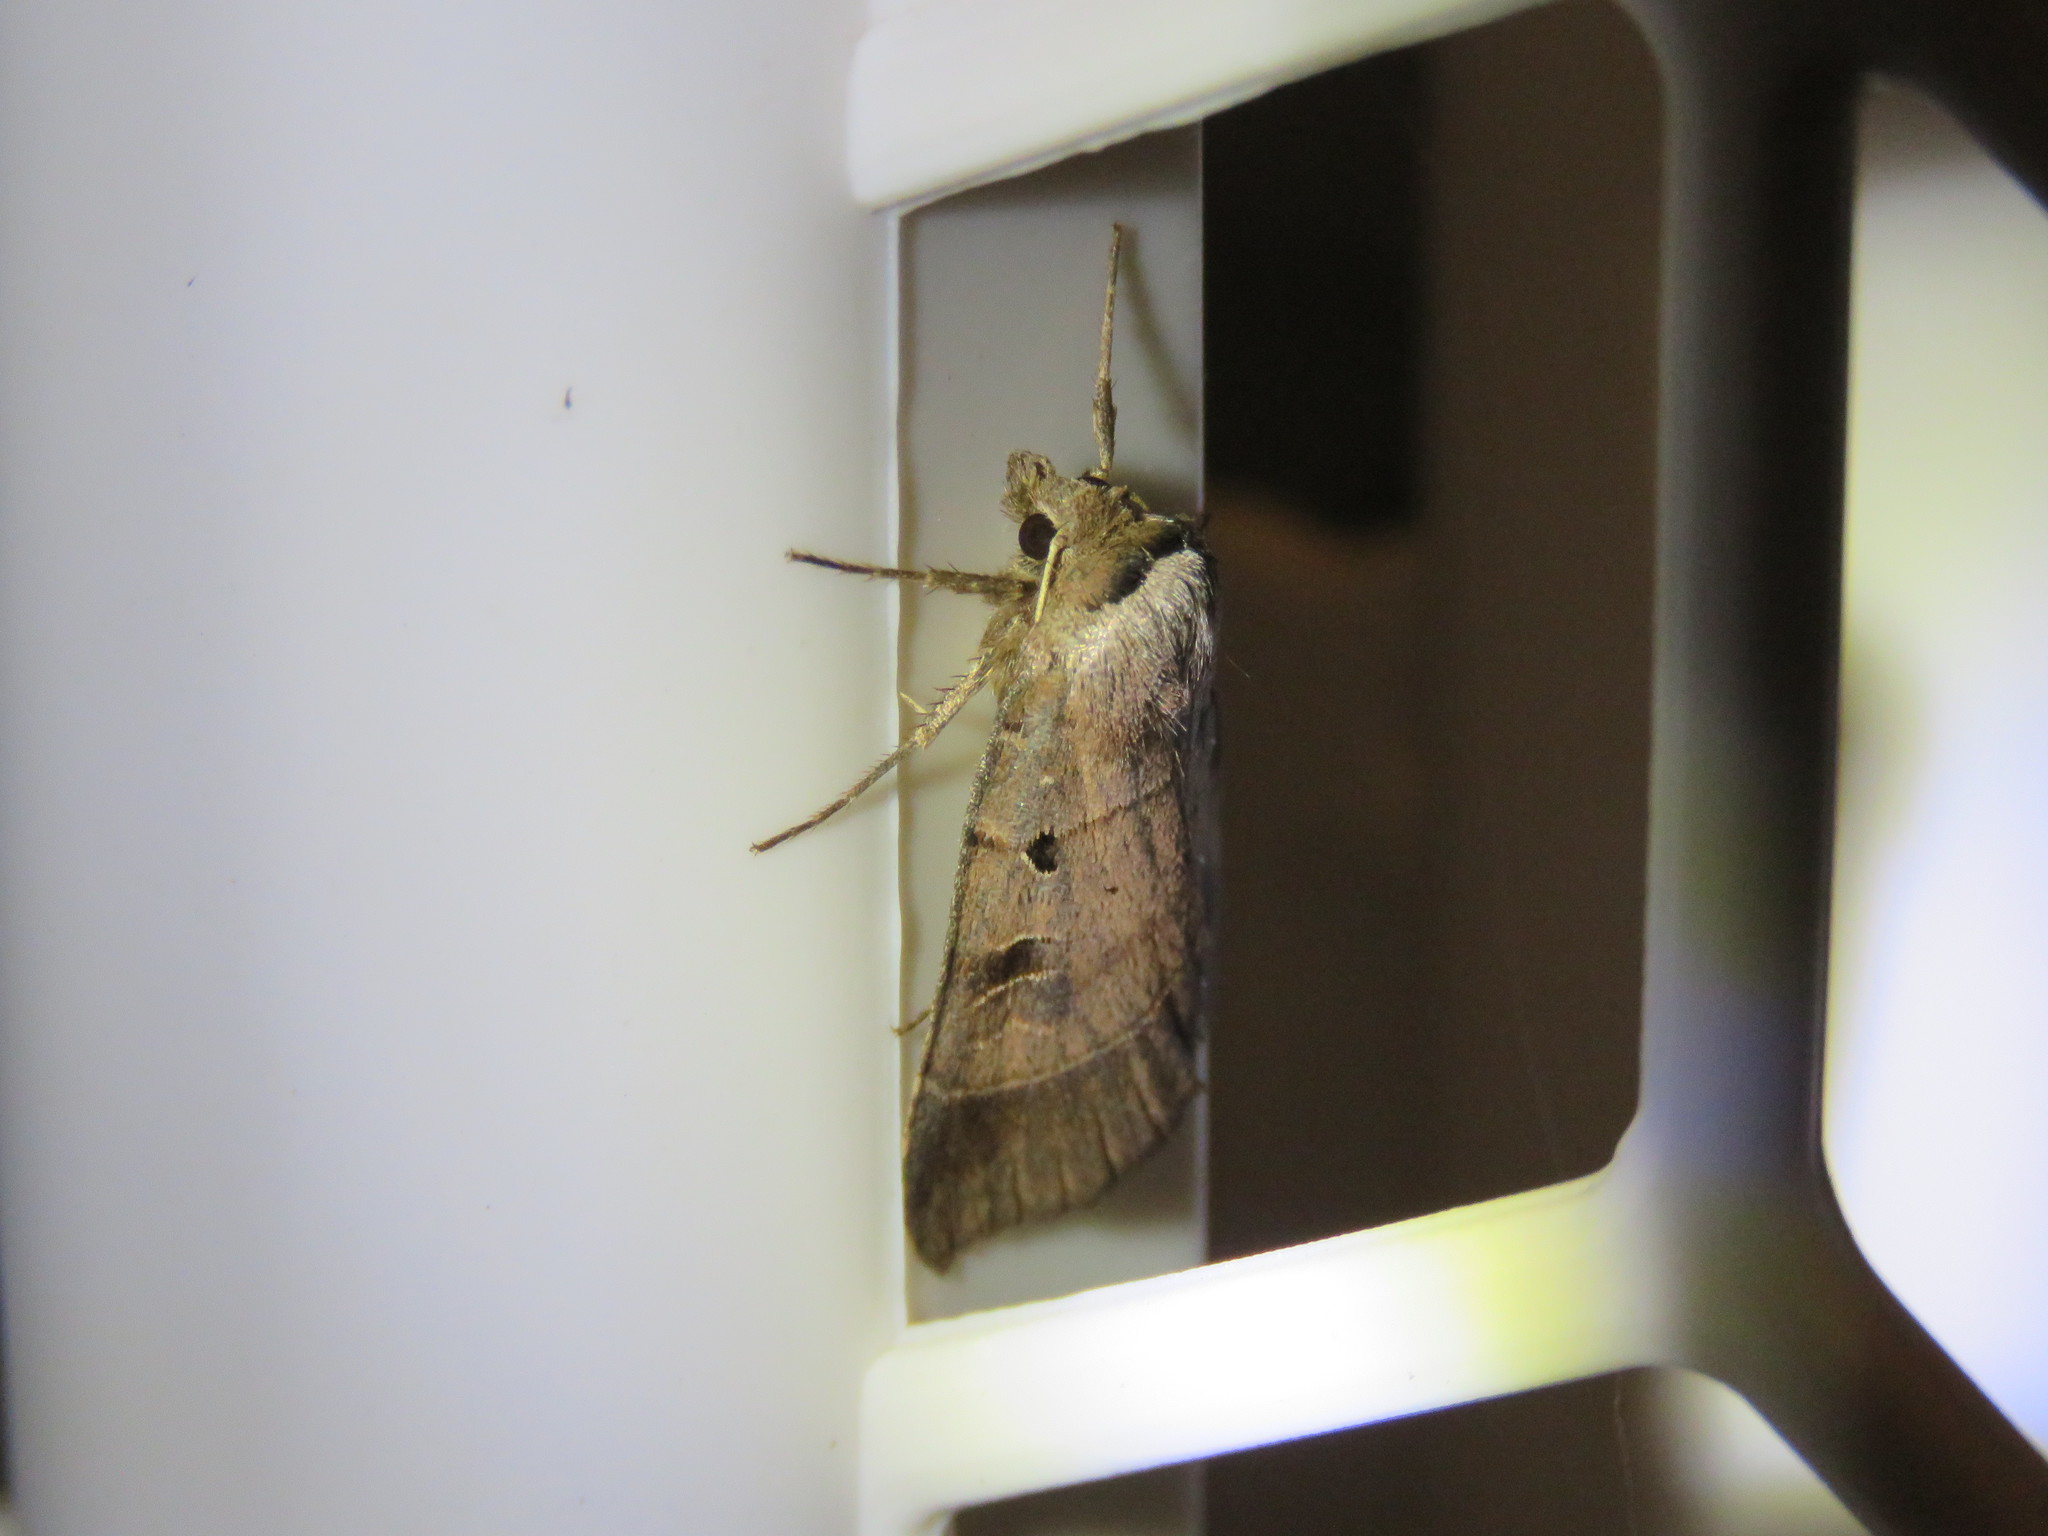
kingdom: Animalia
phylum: Arthropoda
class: Insecta
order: Lepidoptera
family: Noctuidae
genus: Agnorisma
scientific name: Agnorisma badinodis
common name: Pale-banded dart
